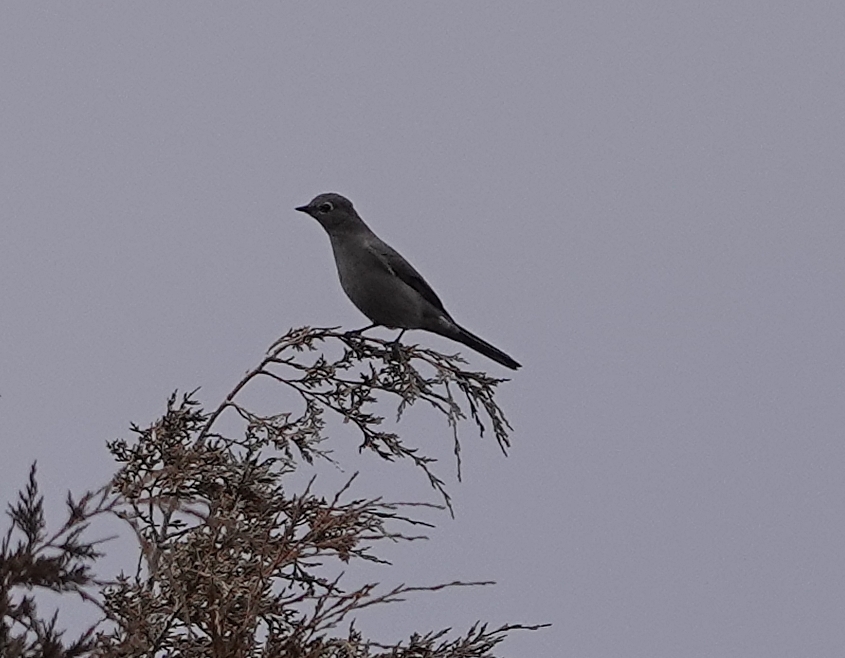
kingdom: Animalia
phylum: Chordata
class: Aves
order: Passeriformes
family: Turdidae
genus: Myadestes
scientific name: Myadestes townsendi
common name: Townsend's solitaire
